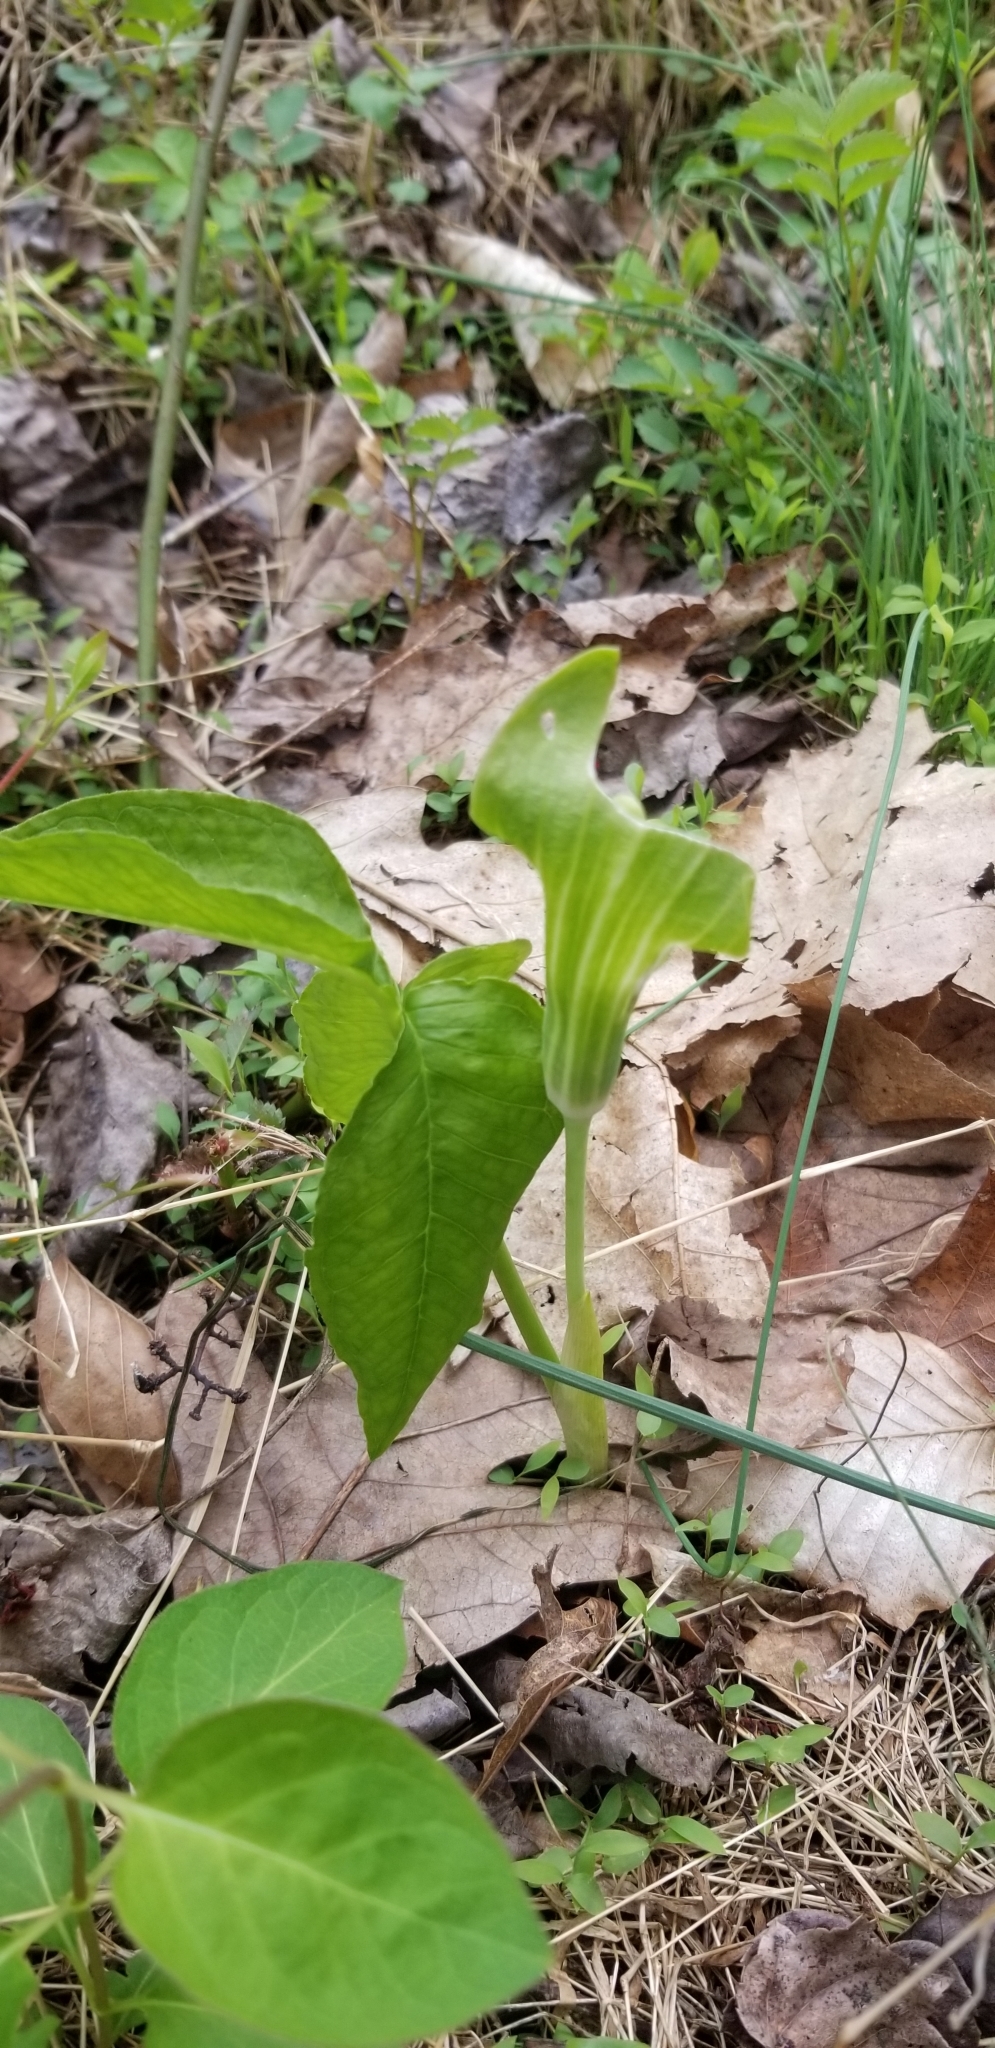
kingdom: Plantae
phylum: Tracheophyta
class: Liliopsida
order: Alismatales
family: Araceae
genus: Arisaema
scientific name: Arisaema triphyllum
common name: Jack-in-the-pulpit
